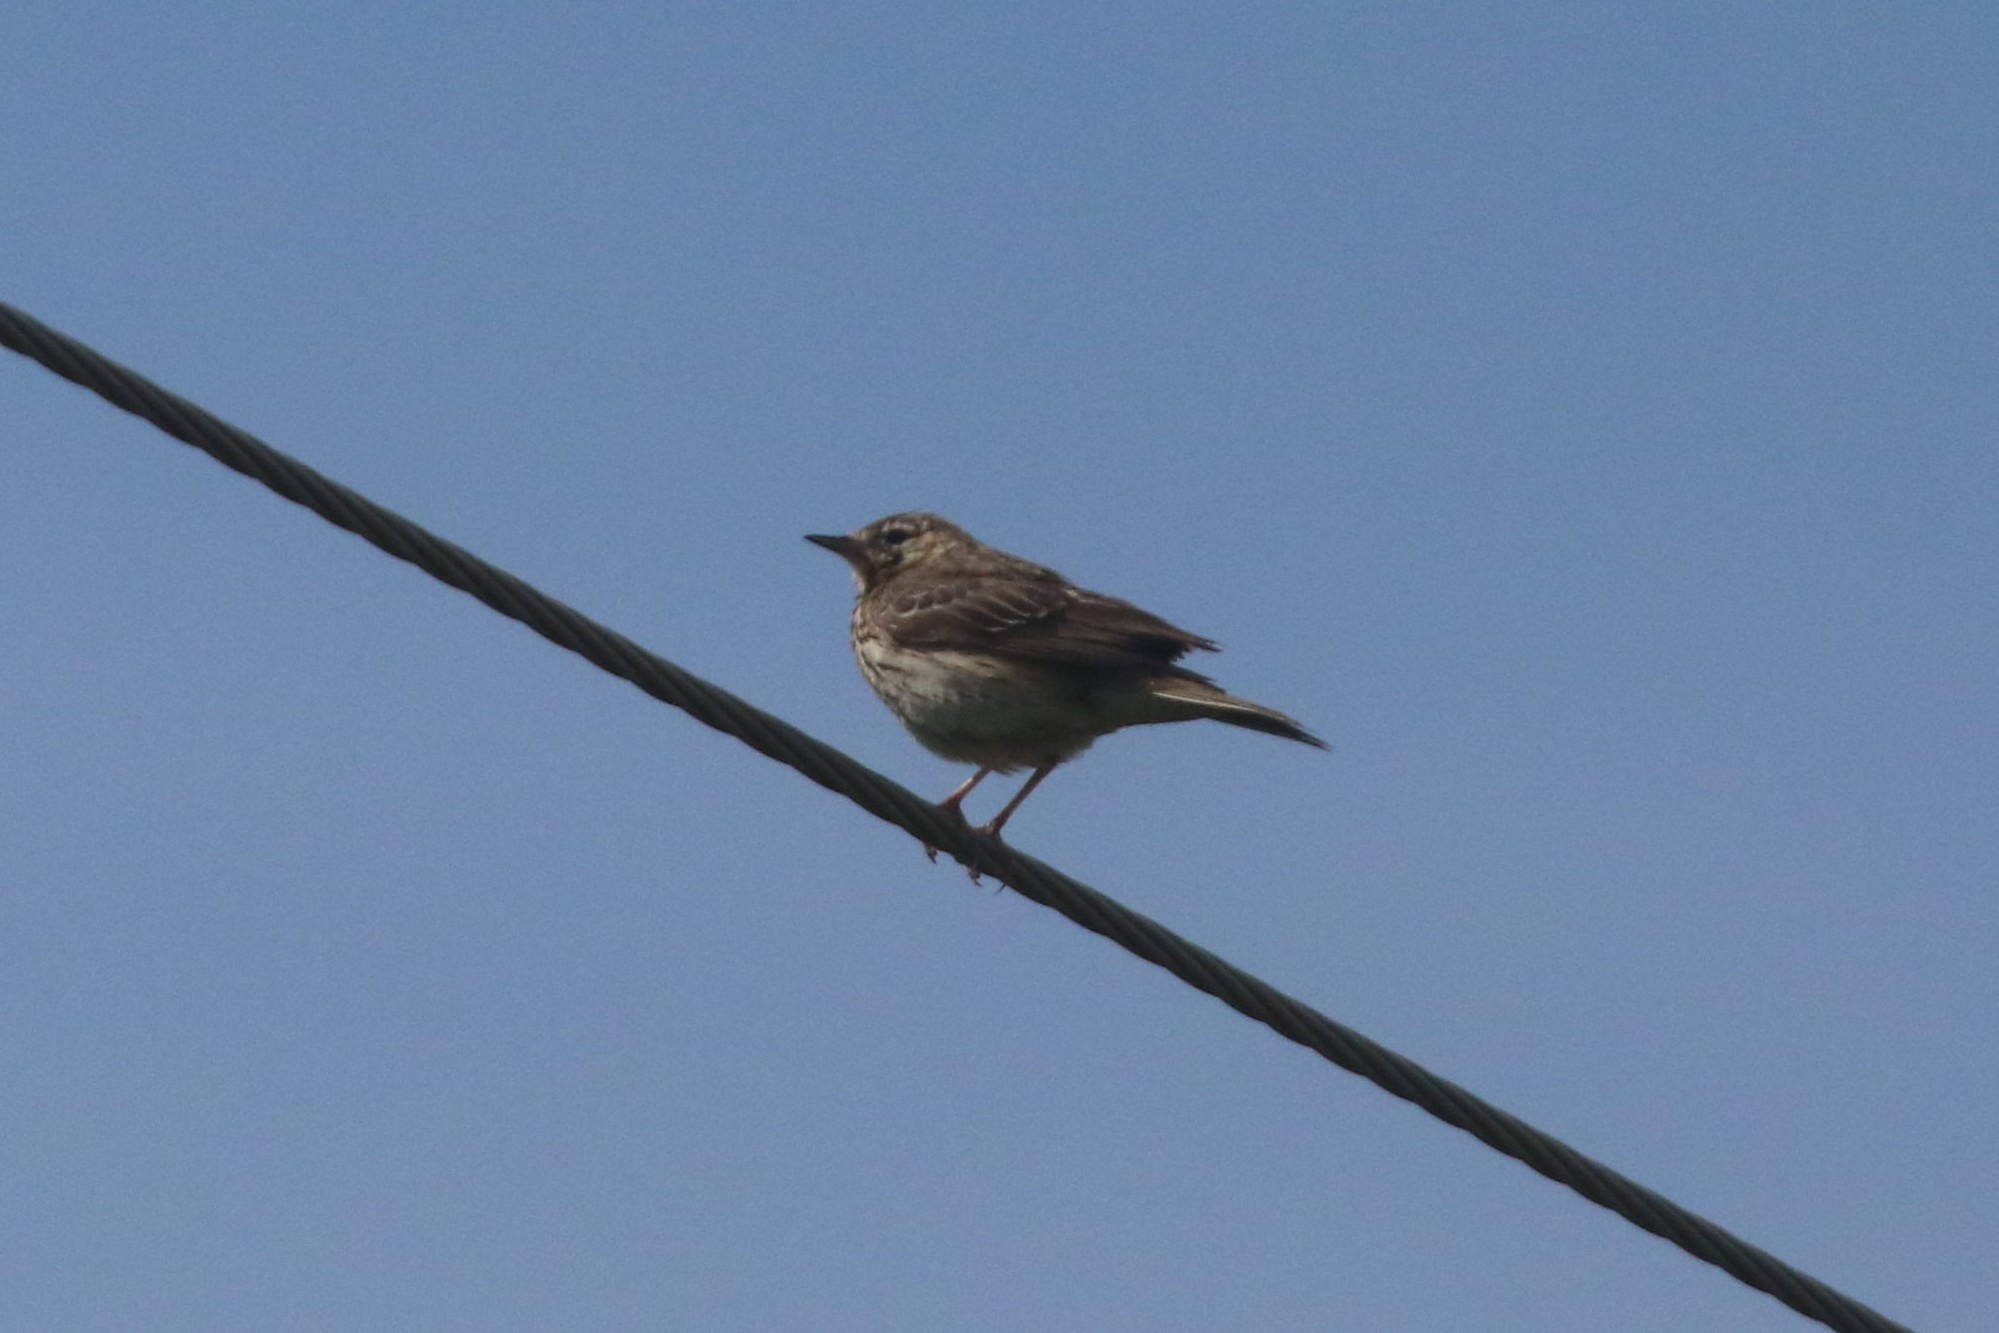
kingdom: Animalia
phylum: Chordata
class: Aves
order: Passeriformes
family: Motacillidae
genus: Anthus
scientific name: Anthus trivialis
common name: Tree pipit
